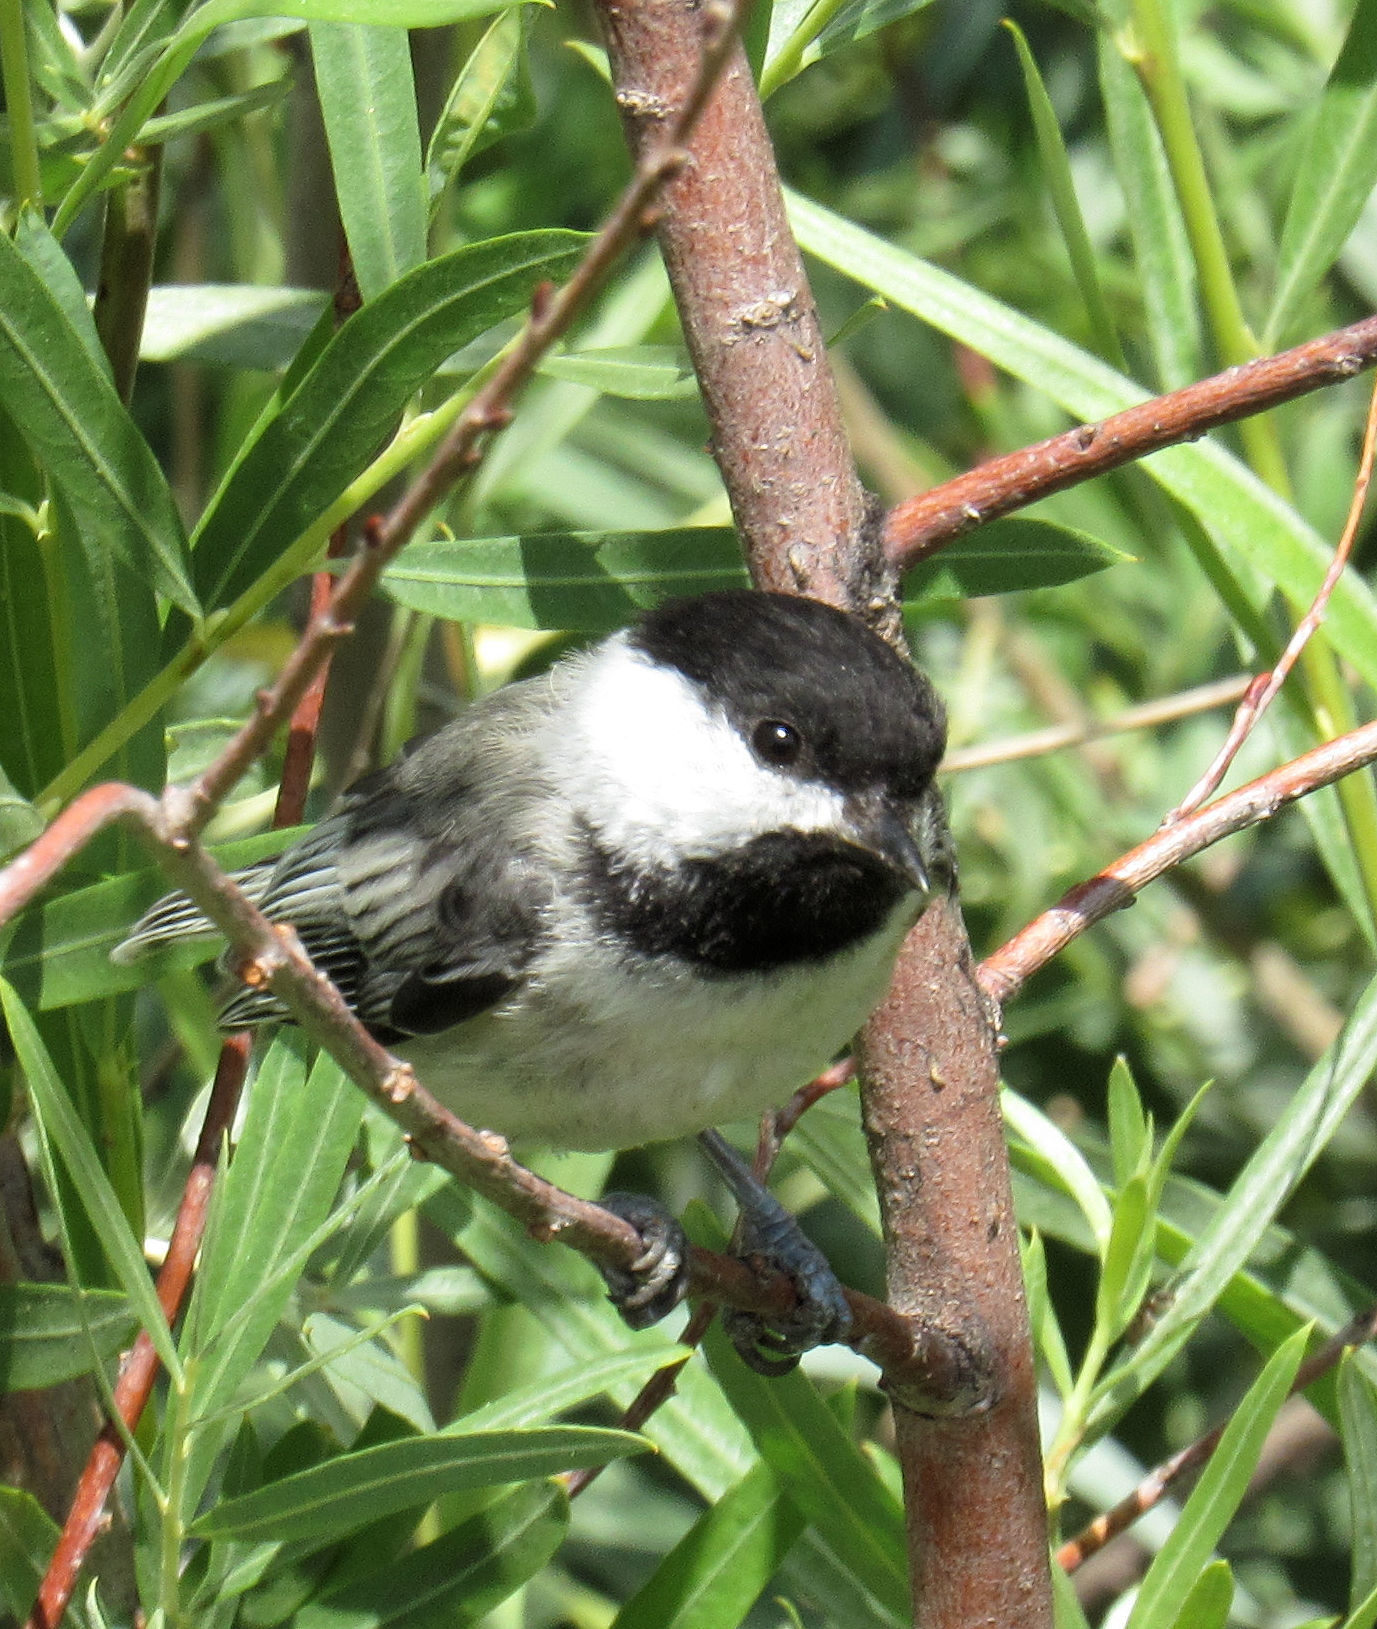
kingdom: Animalia
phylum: Chordata
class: Aves
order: Passeriformes
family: Paridae
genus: Poecile
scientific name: Poecile atricapillus
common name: Black-capped chickadee
